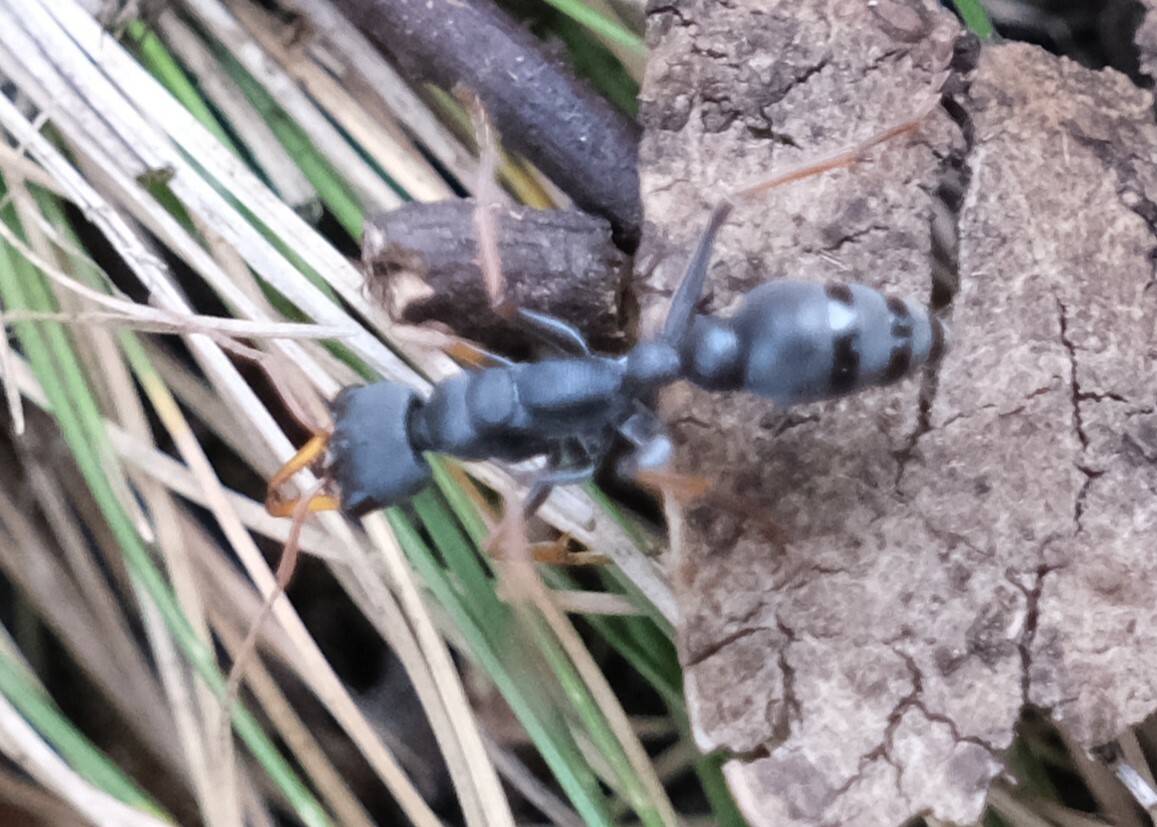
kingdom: Animalia
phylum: Arthropoda
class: Insecta
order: Hymenoptera
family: Formicidae
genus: Myrmecia
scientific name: Myrmecia pilosula
